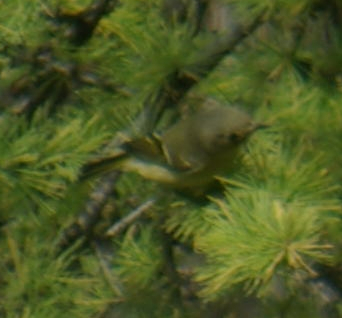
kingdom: Animalia
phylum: Chordata
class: Aves
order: Passeriformes
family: Regulidae
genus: Regulus
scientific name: Regulus calendula
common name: Ruby-crowned kinglet
